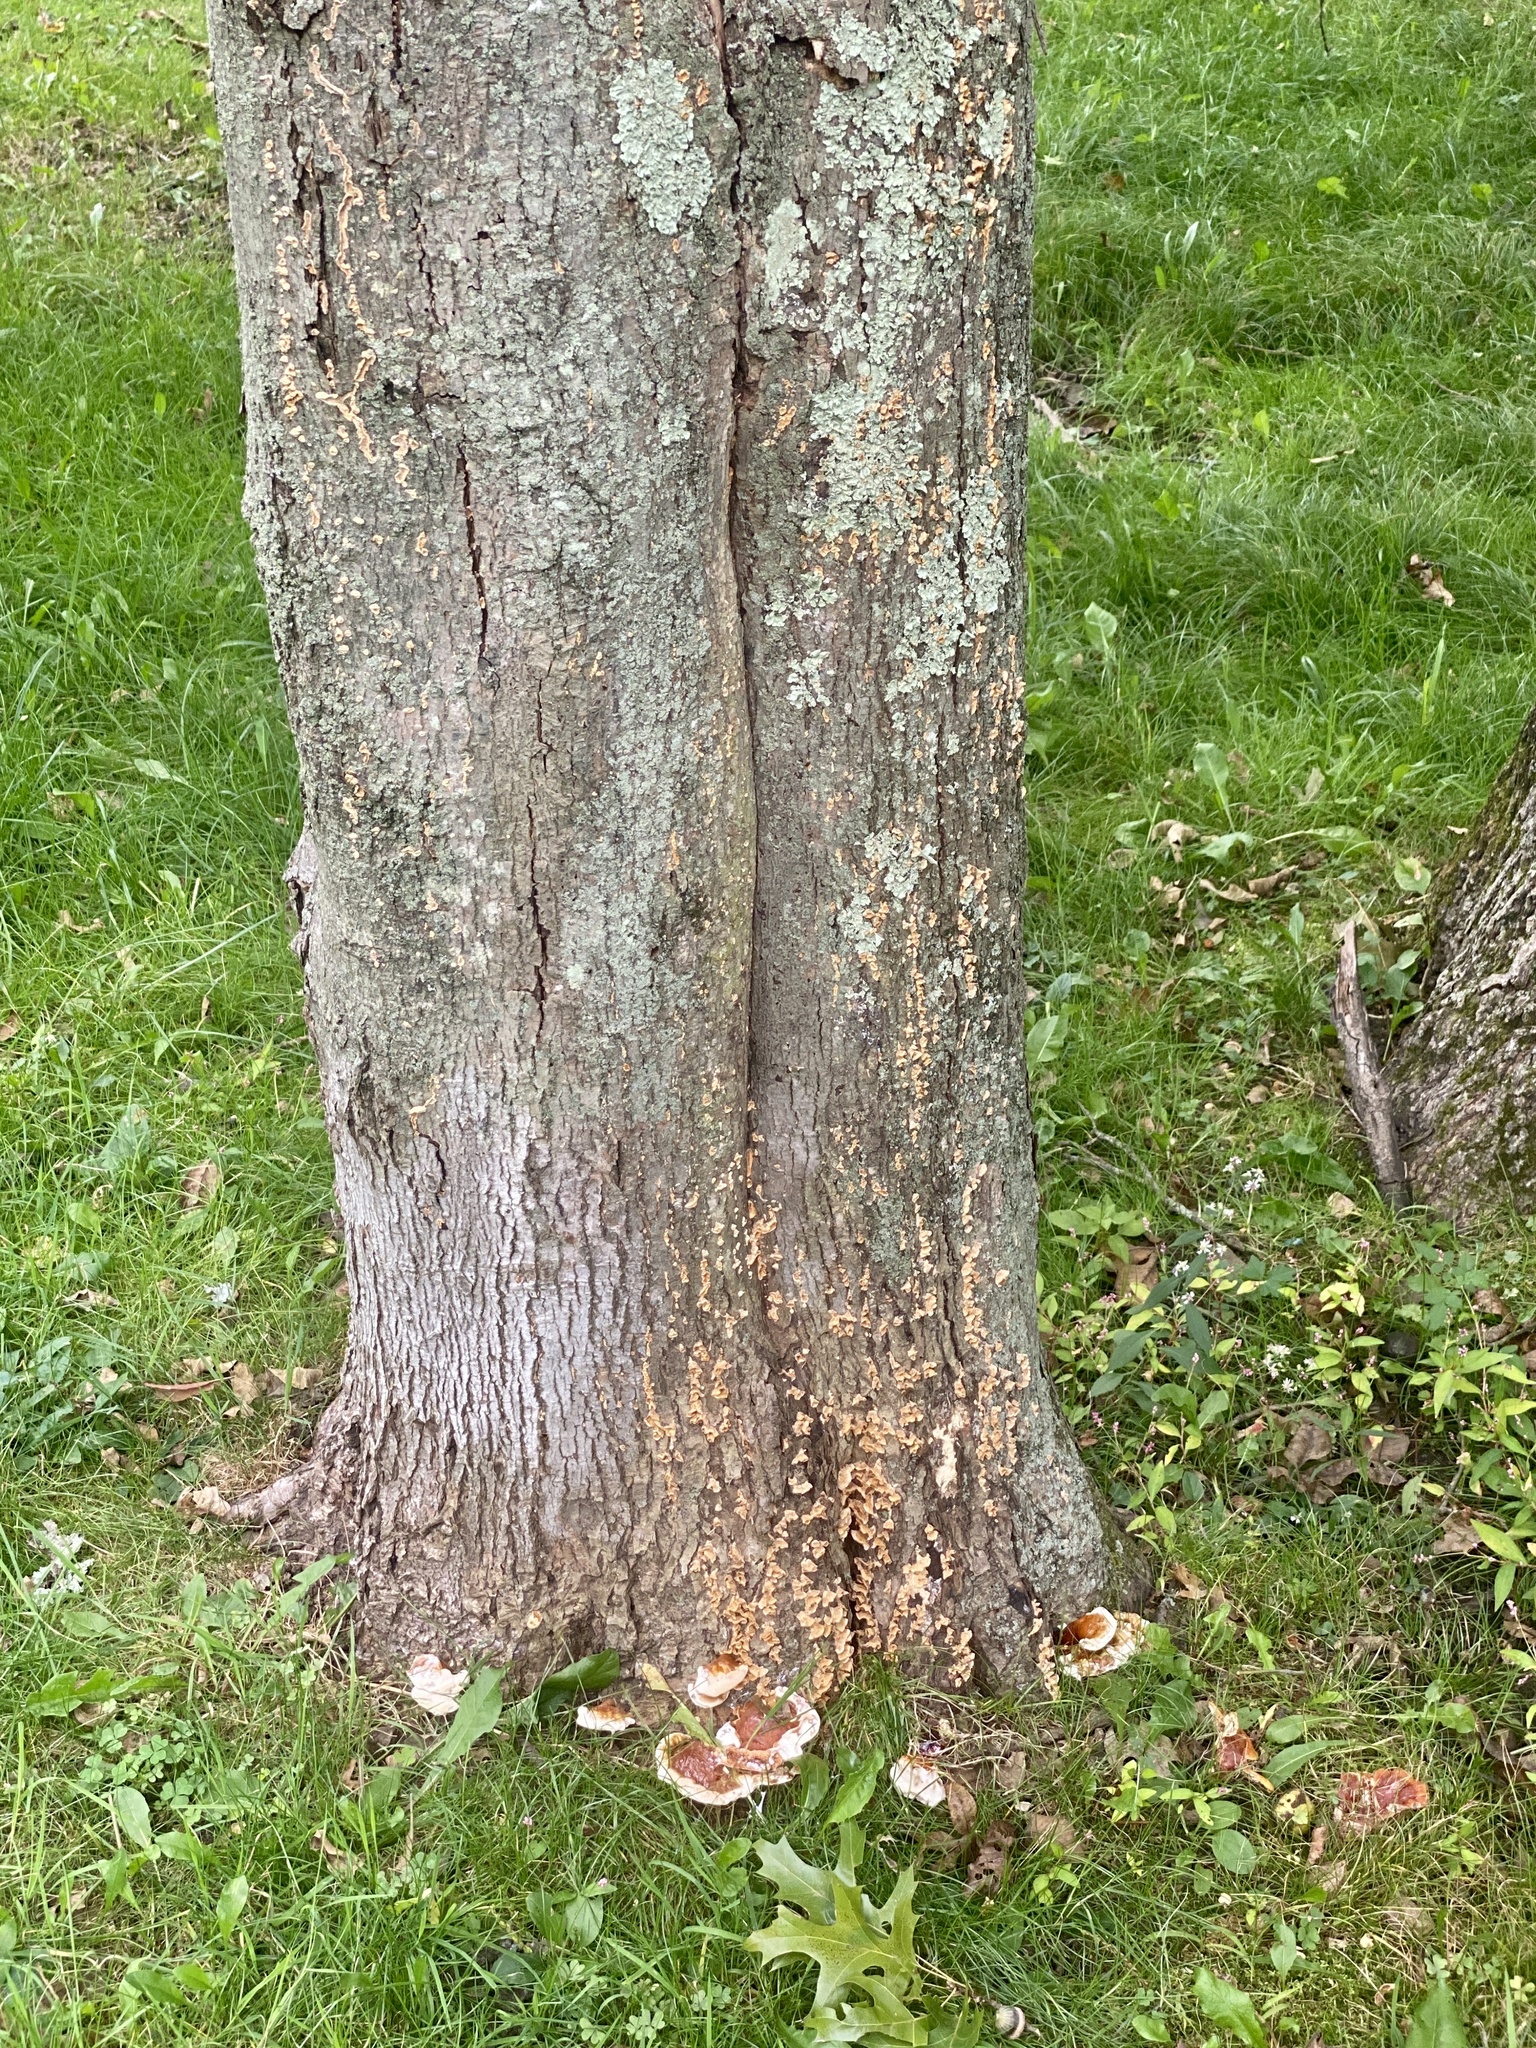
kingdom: Fungi
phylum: Basidiomycota
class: Agaricomycetes
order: Polyporales
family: Polyporaceae
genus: Ganoderma
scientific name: Ganoderma curtisii
